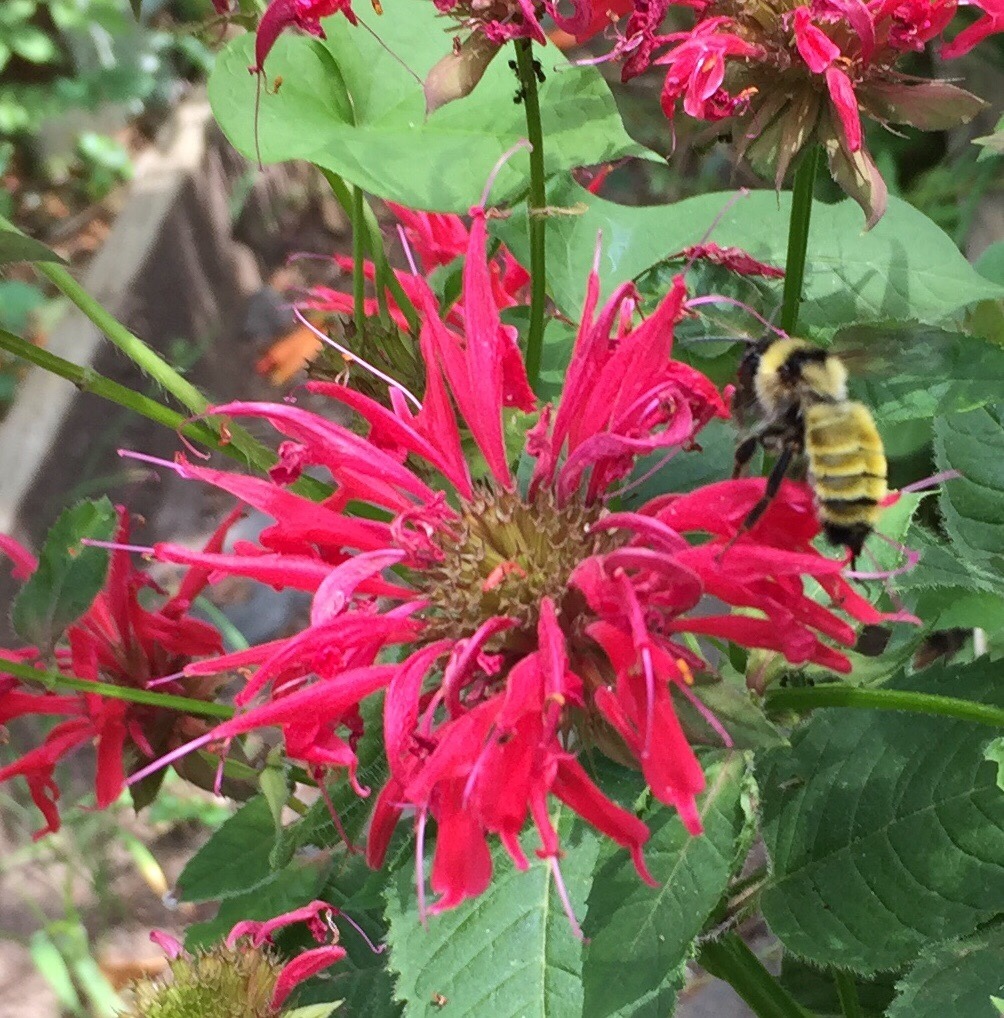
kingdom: Animalia
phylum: Arthropoda
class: Insecta
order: Hymenoptera
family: Apidae
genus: Bombus
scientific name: Bombus fervidus
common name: Yellow bumble bee
